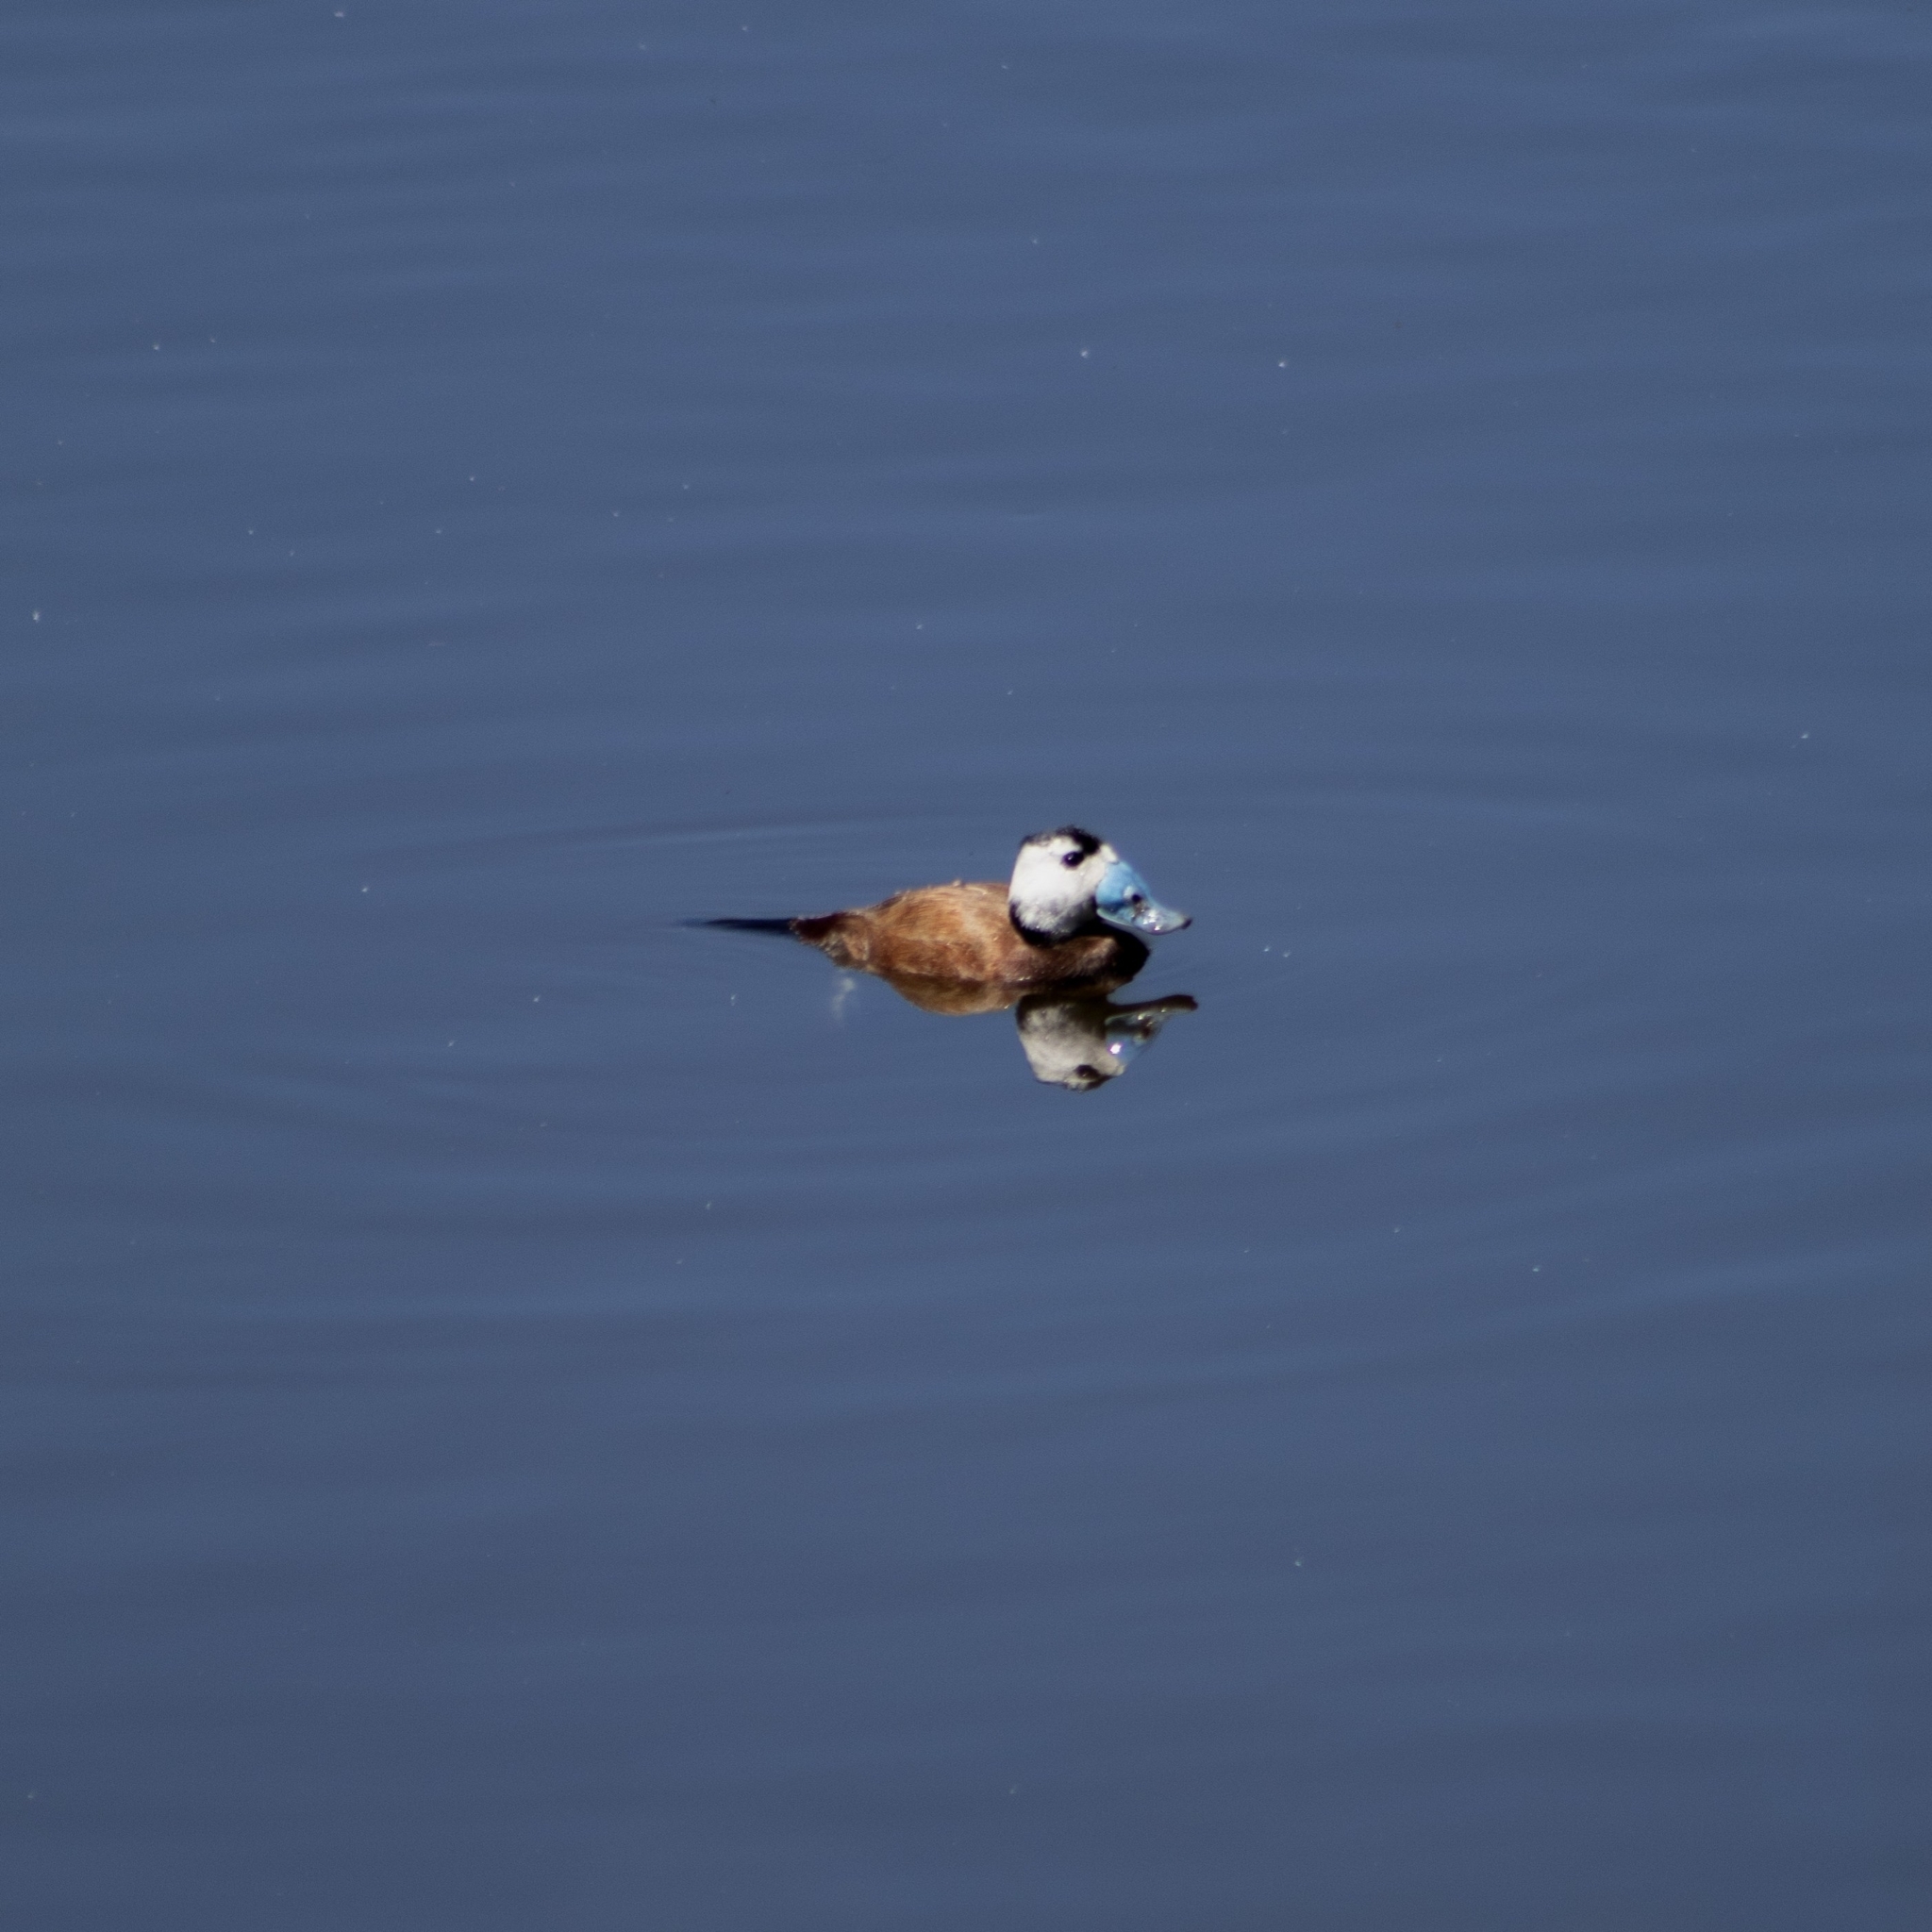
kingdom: Animalia
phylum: Chordata
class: Aves
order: Anseriformes
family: Anatidae
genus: Oxyura
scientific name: Oxyura leucocephala
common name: White-headed duck
